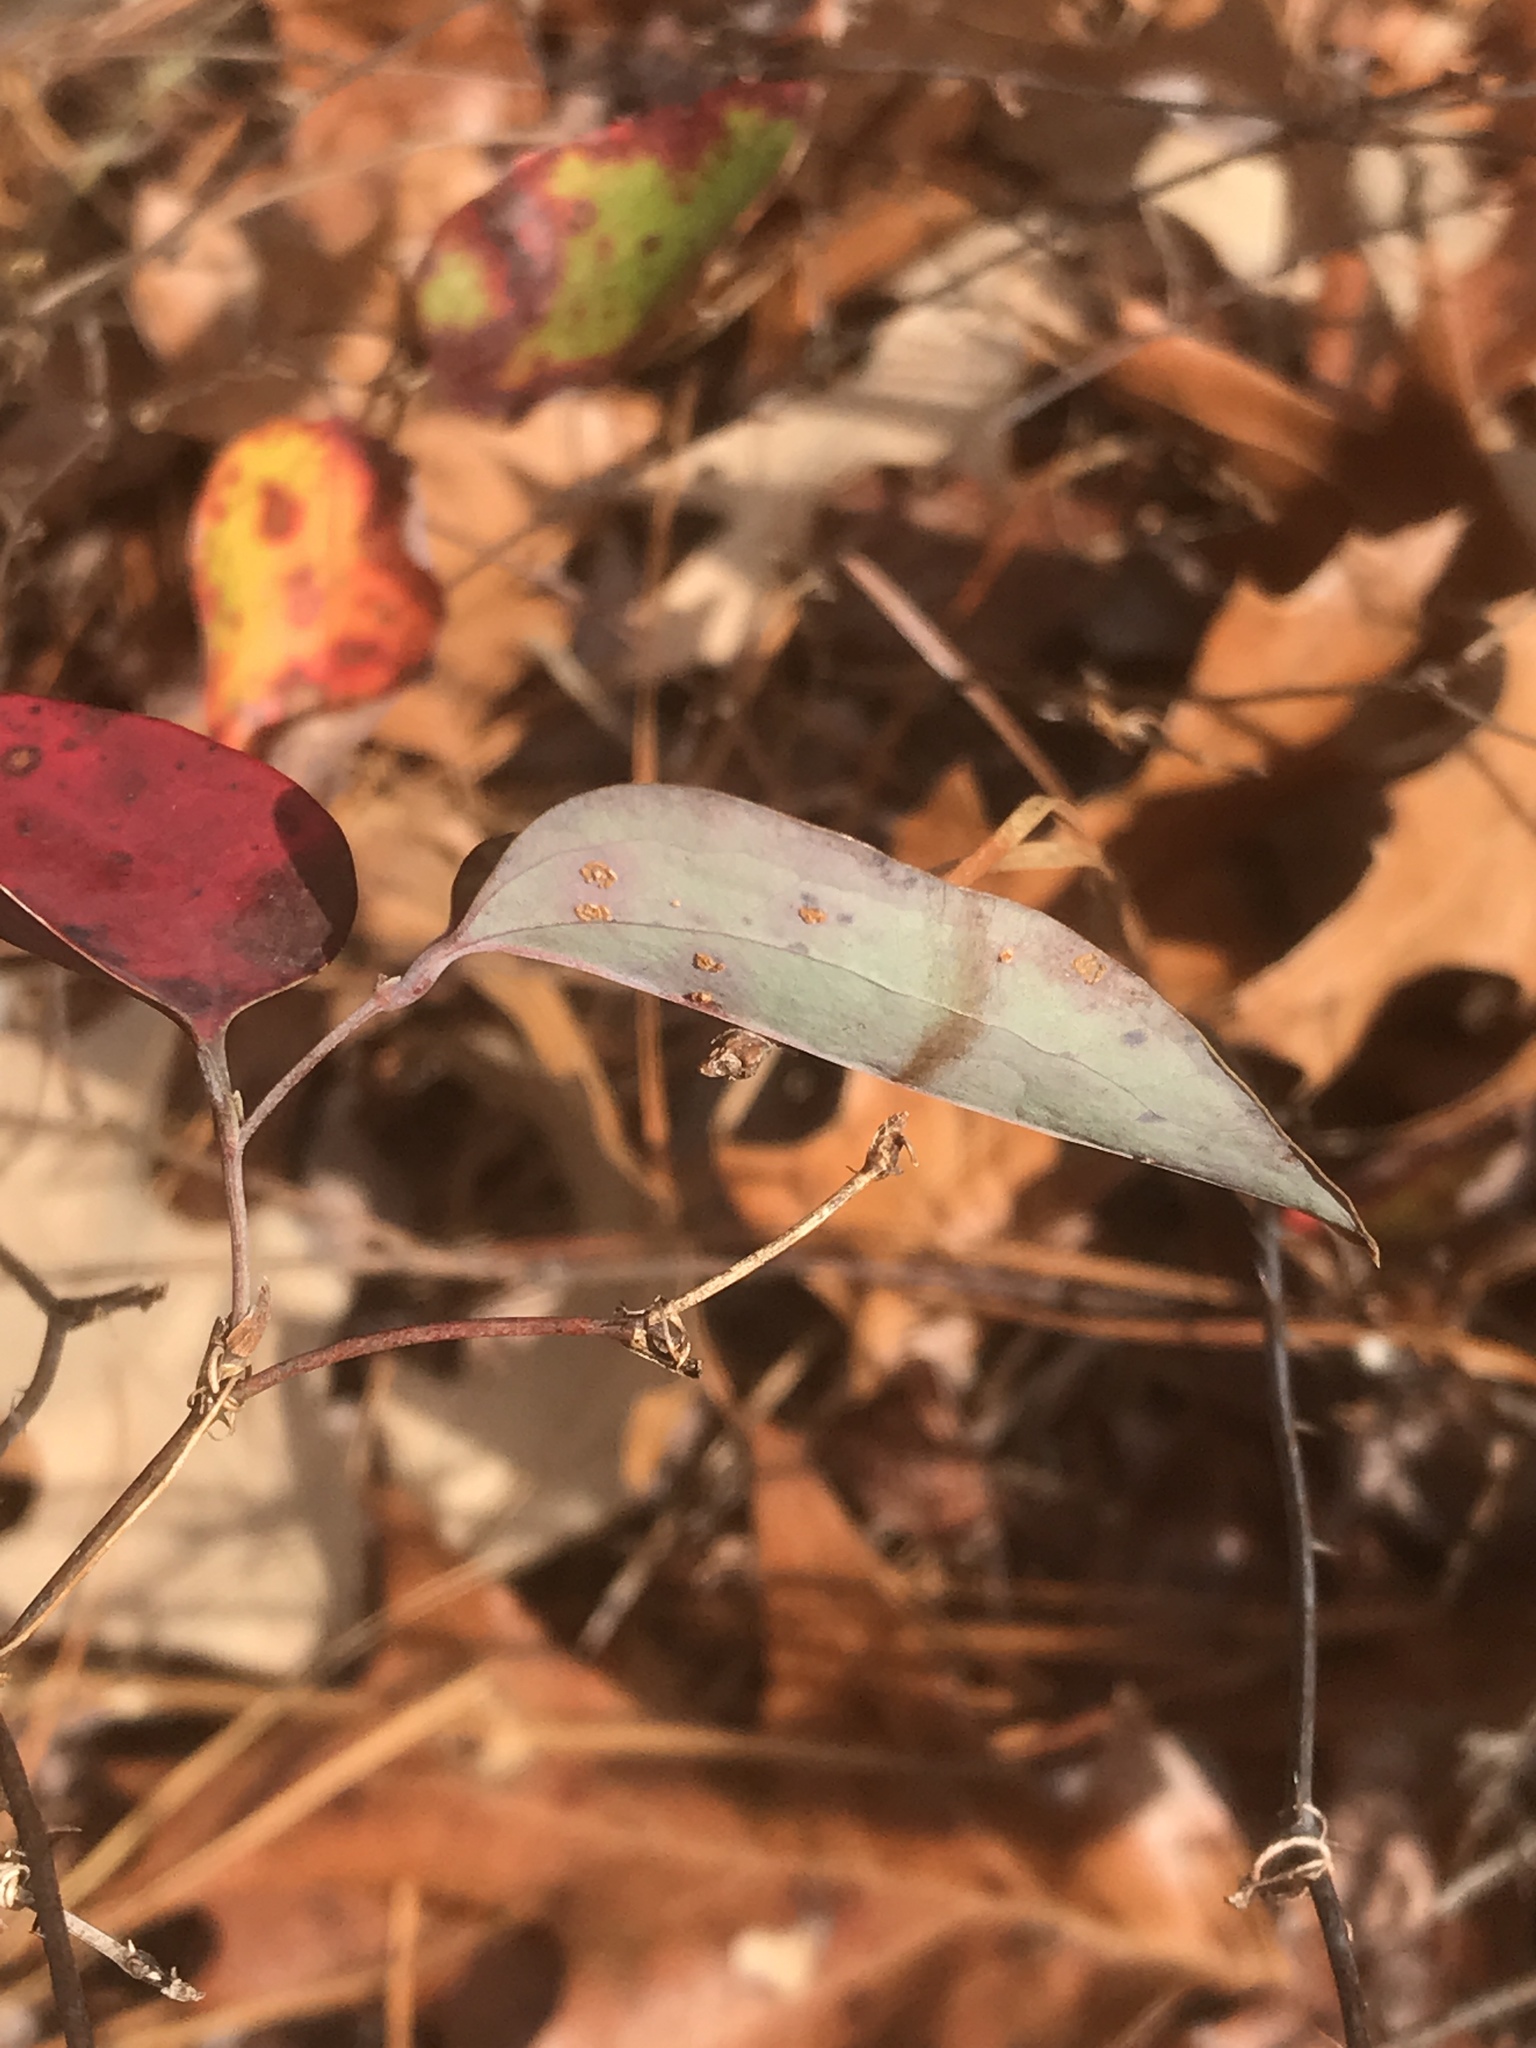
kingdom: Plantae
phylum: Tracheophyta
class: Liliopsida
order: Liliales
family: Smilacaceae
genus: Smilax
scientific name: Smilax glauca
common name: Cat greenbrier
